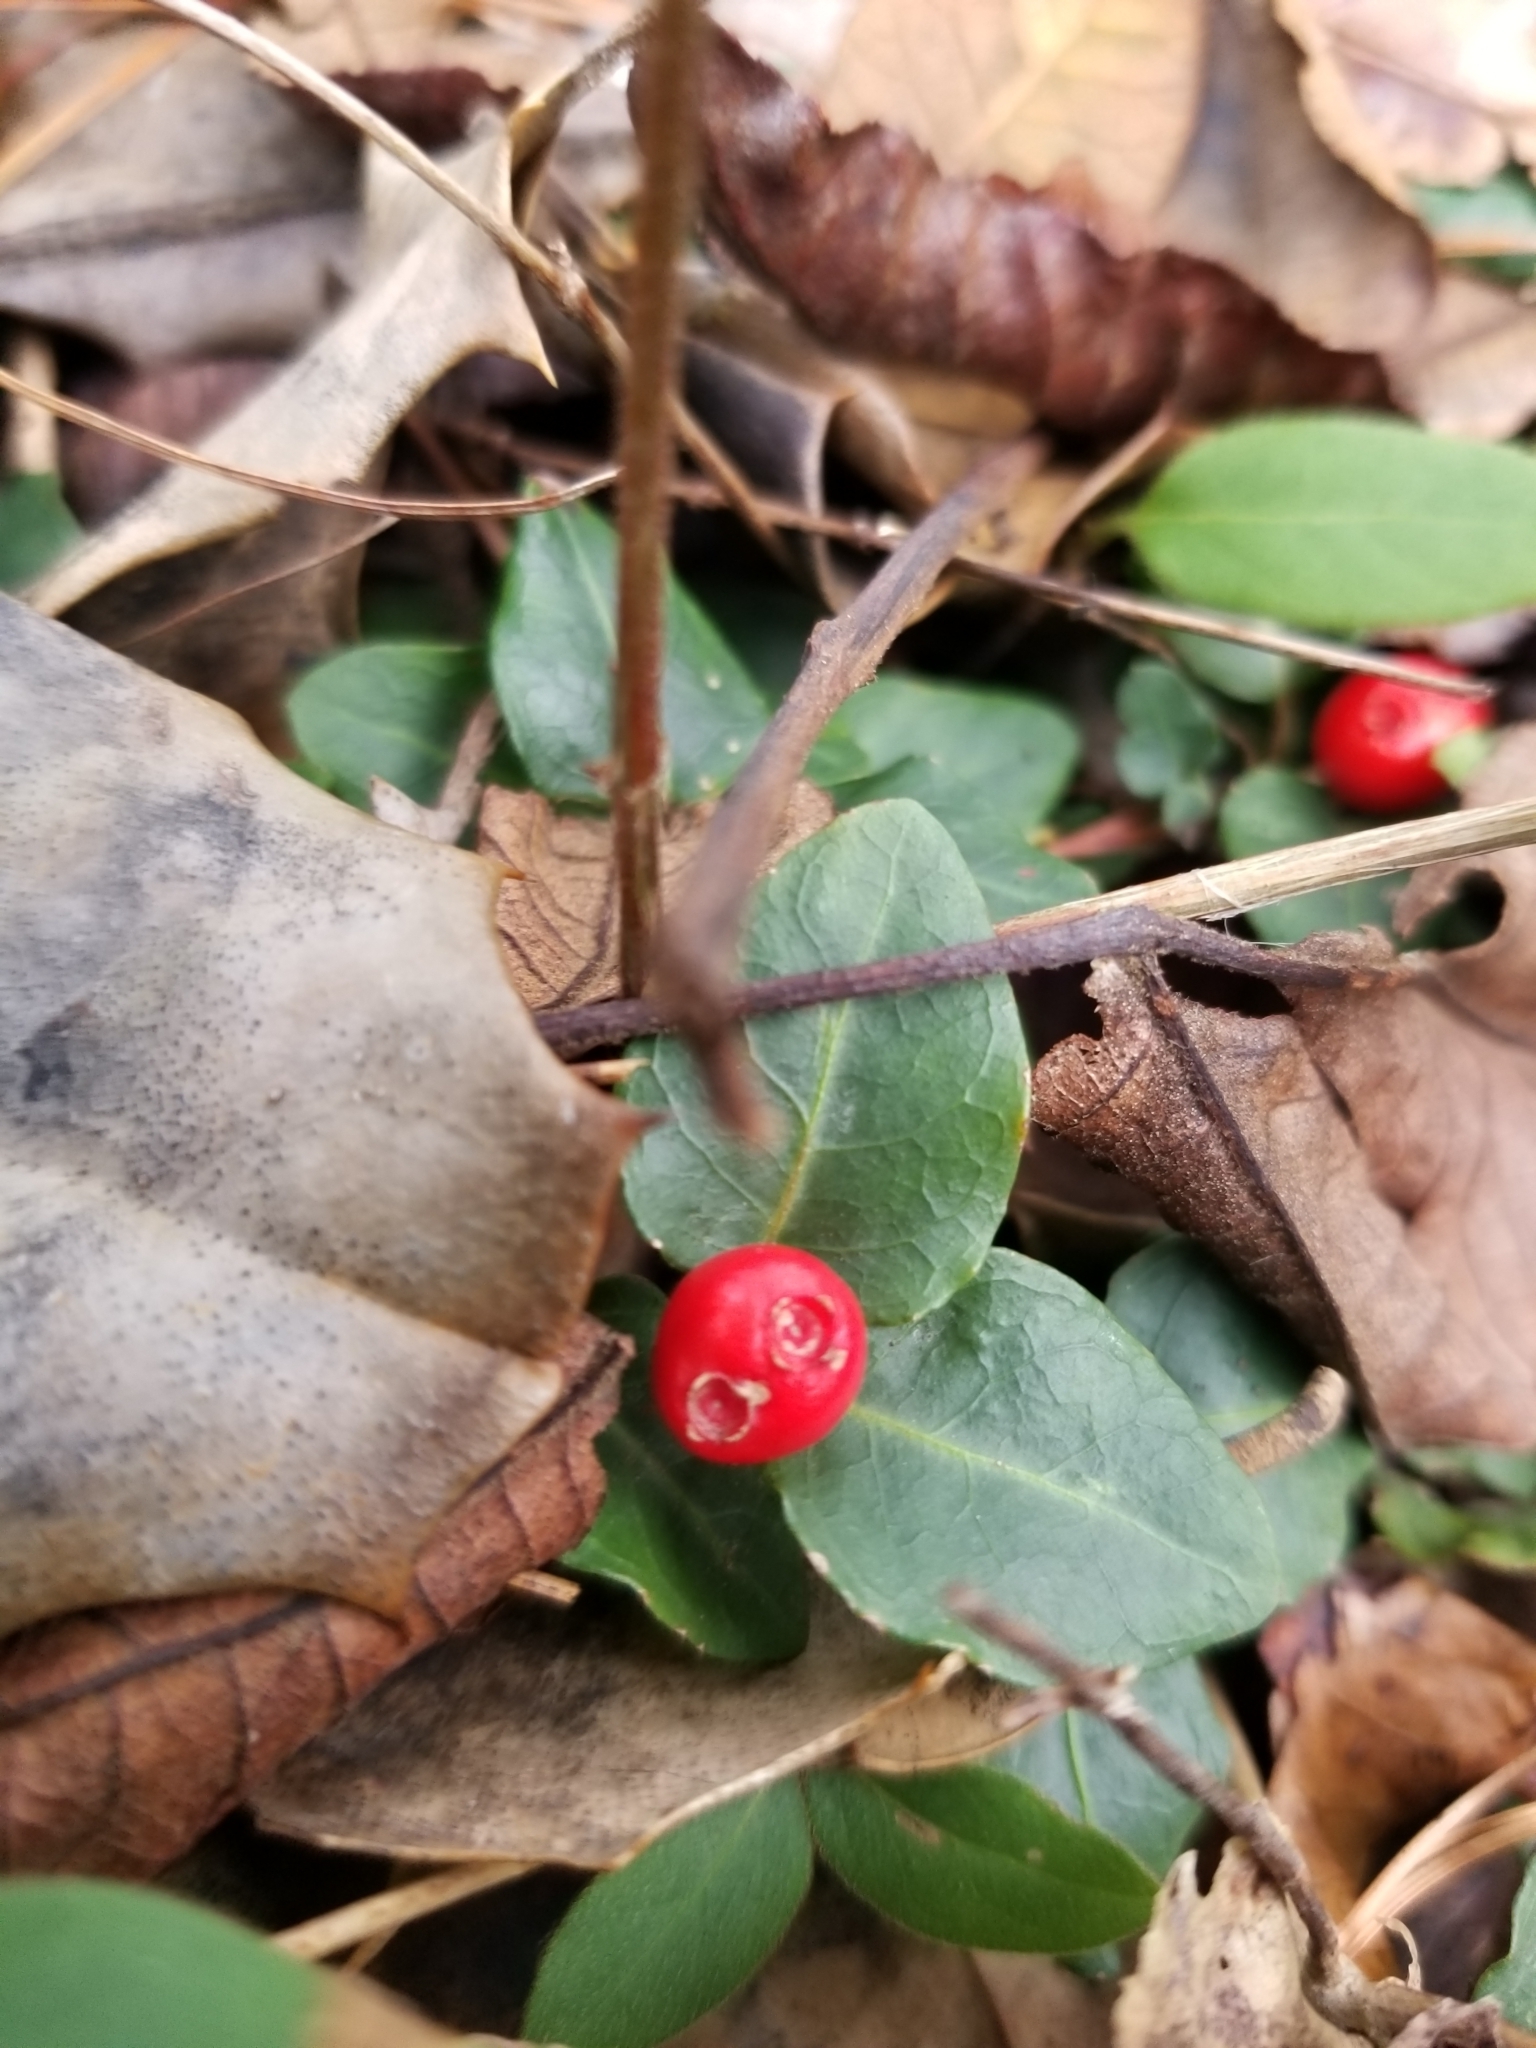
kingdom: Plantae
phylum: Tracheophyta
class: Magnoliopsida
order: Gentianales
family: Rubiaceae
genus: Mitchella
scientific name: Mitchella repens
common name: Partridge-berry
